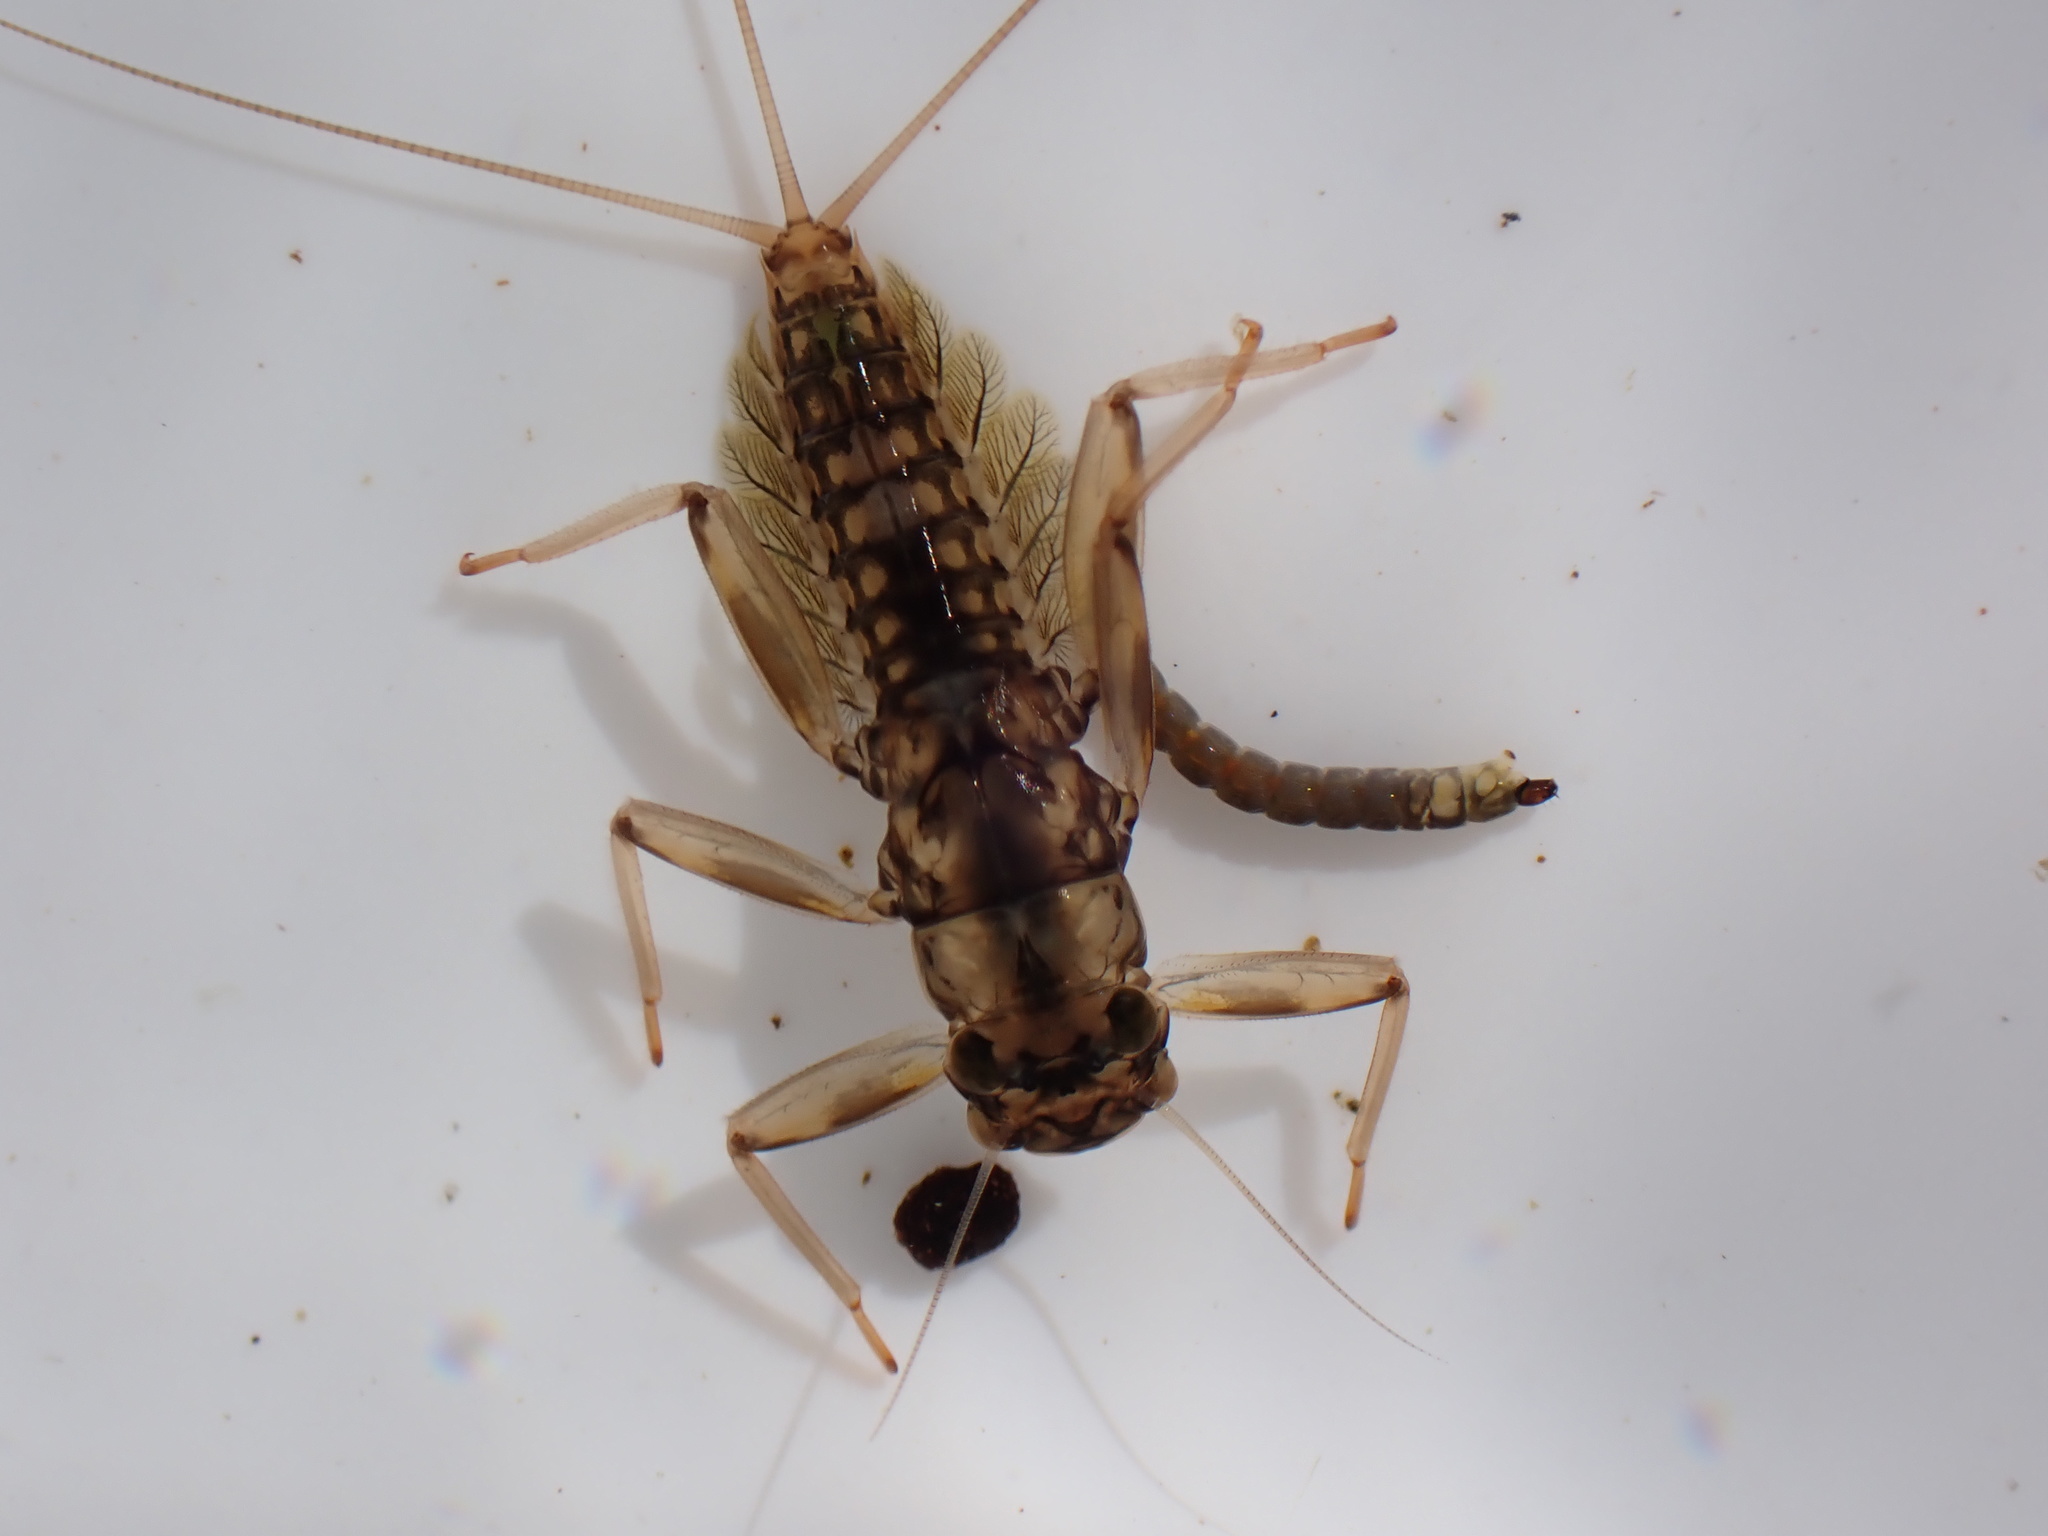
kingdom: Animalia
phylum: Arthropoda
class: Insecta
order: Ephemeroptera
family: Leptophlebiidae
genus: Deleatidium
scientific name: Deleatidium magnum
